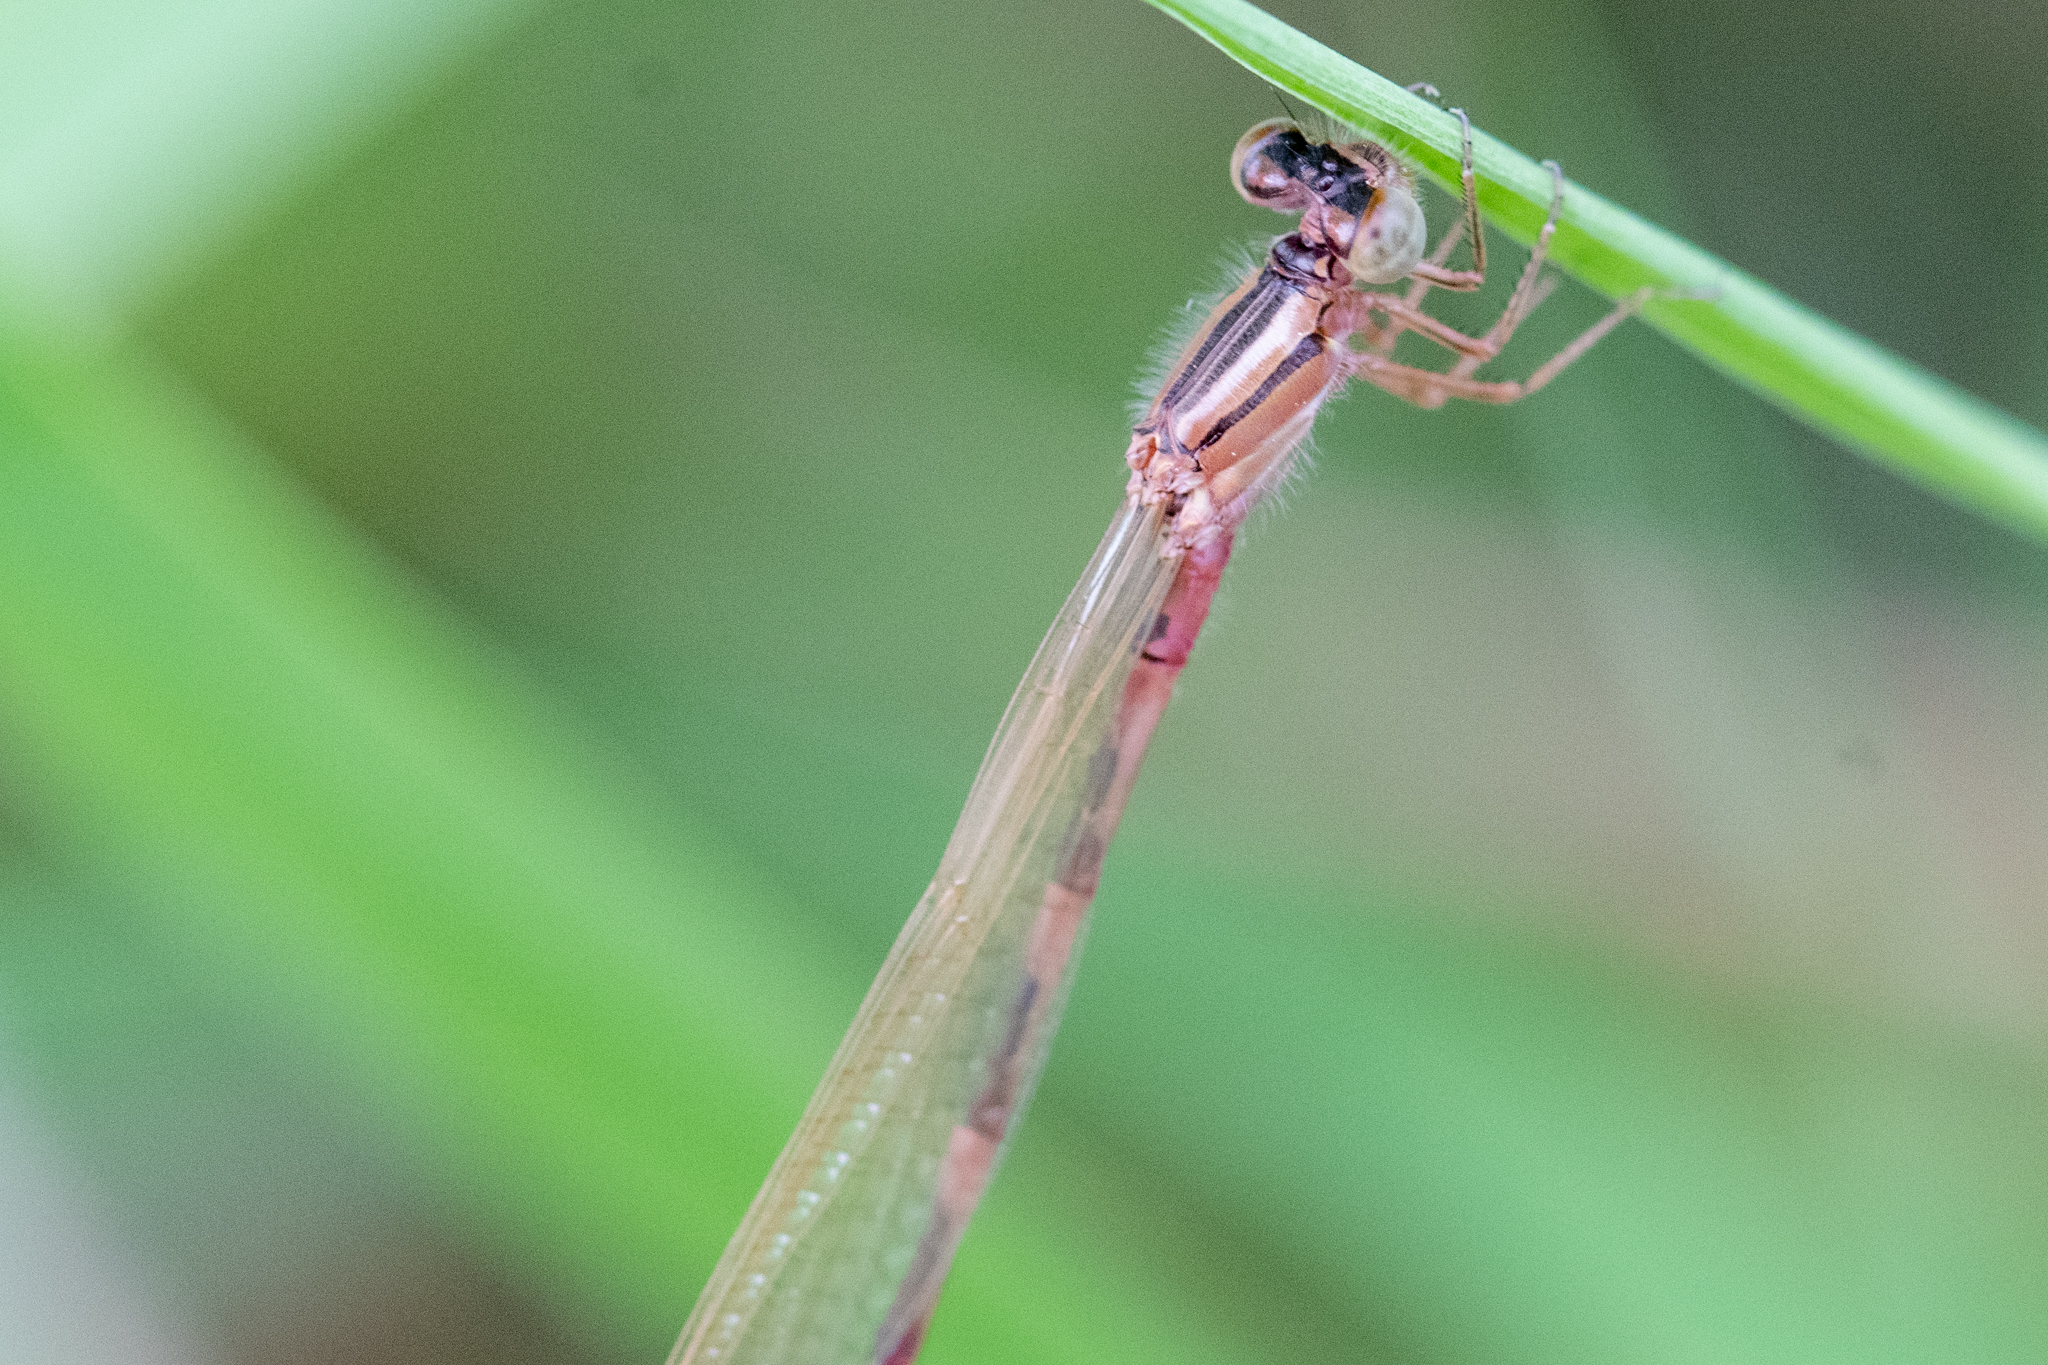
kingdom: Animalia
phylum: Arthropoda
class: Insecta
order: Odonata
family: Coenagrionidae
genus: Enallagma
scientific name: Enallagma carunculatum
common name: Tule bluet
